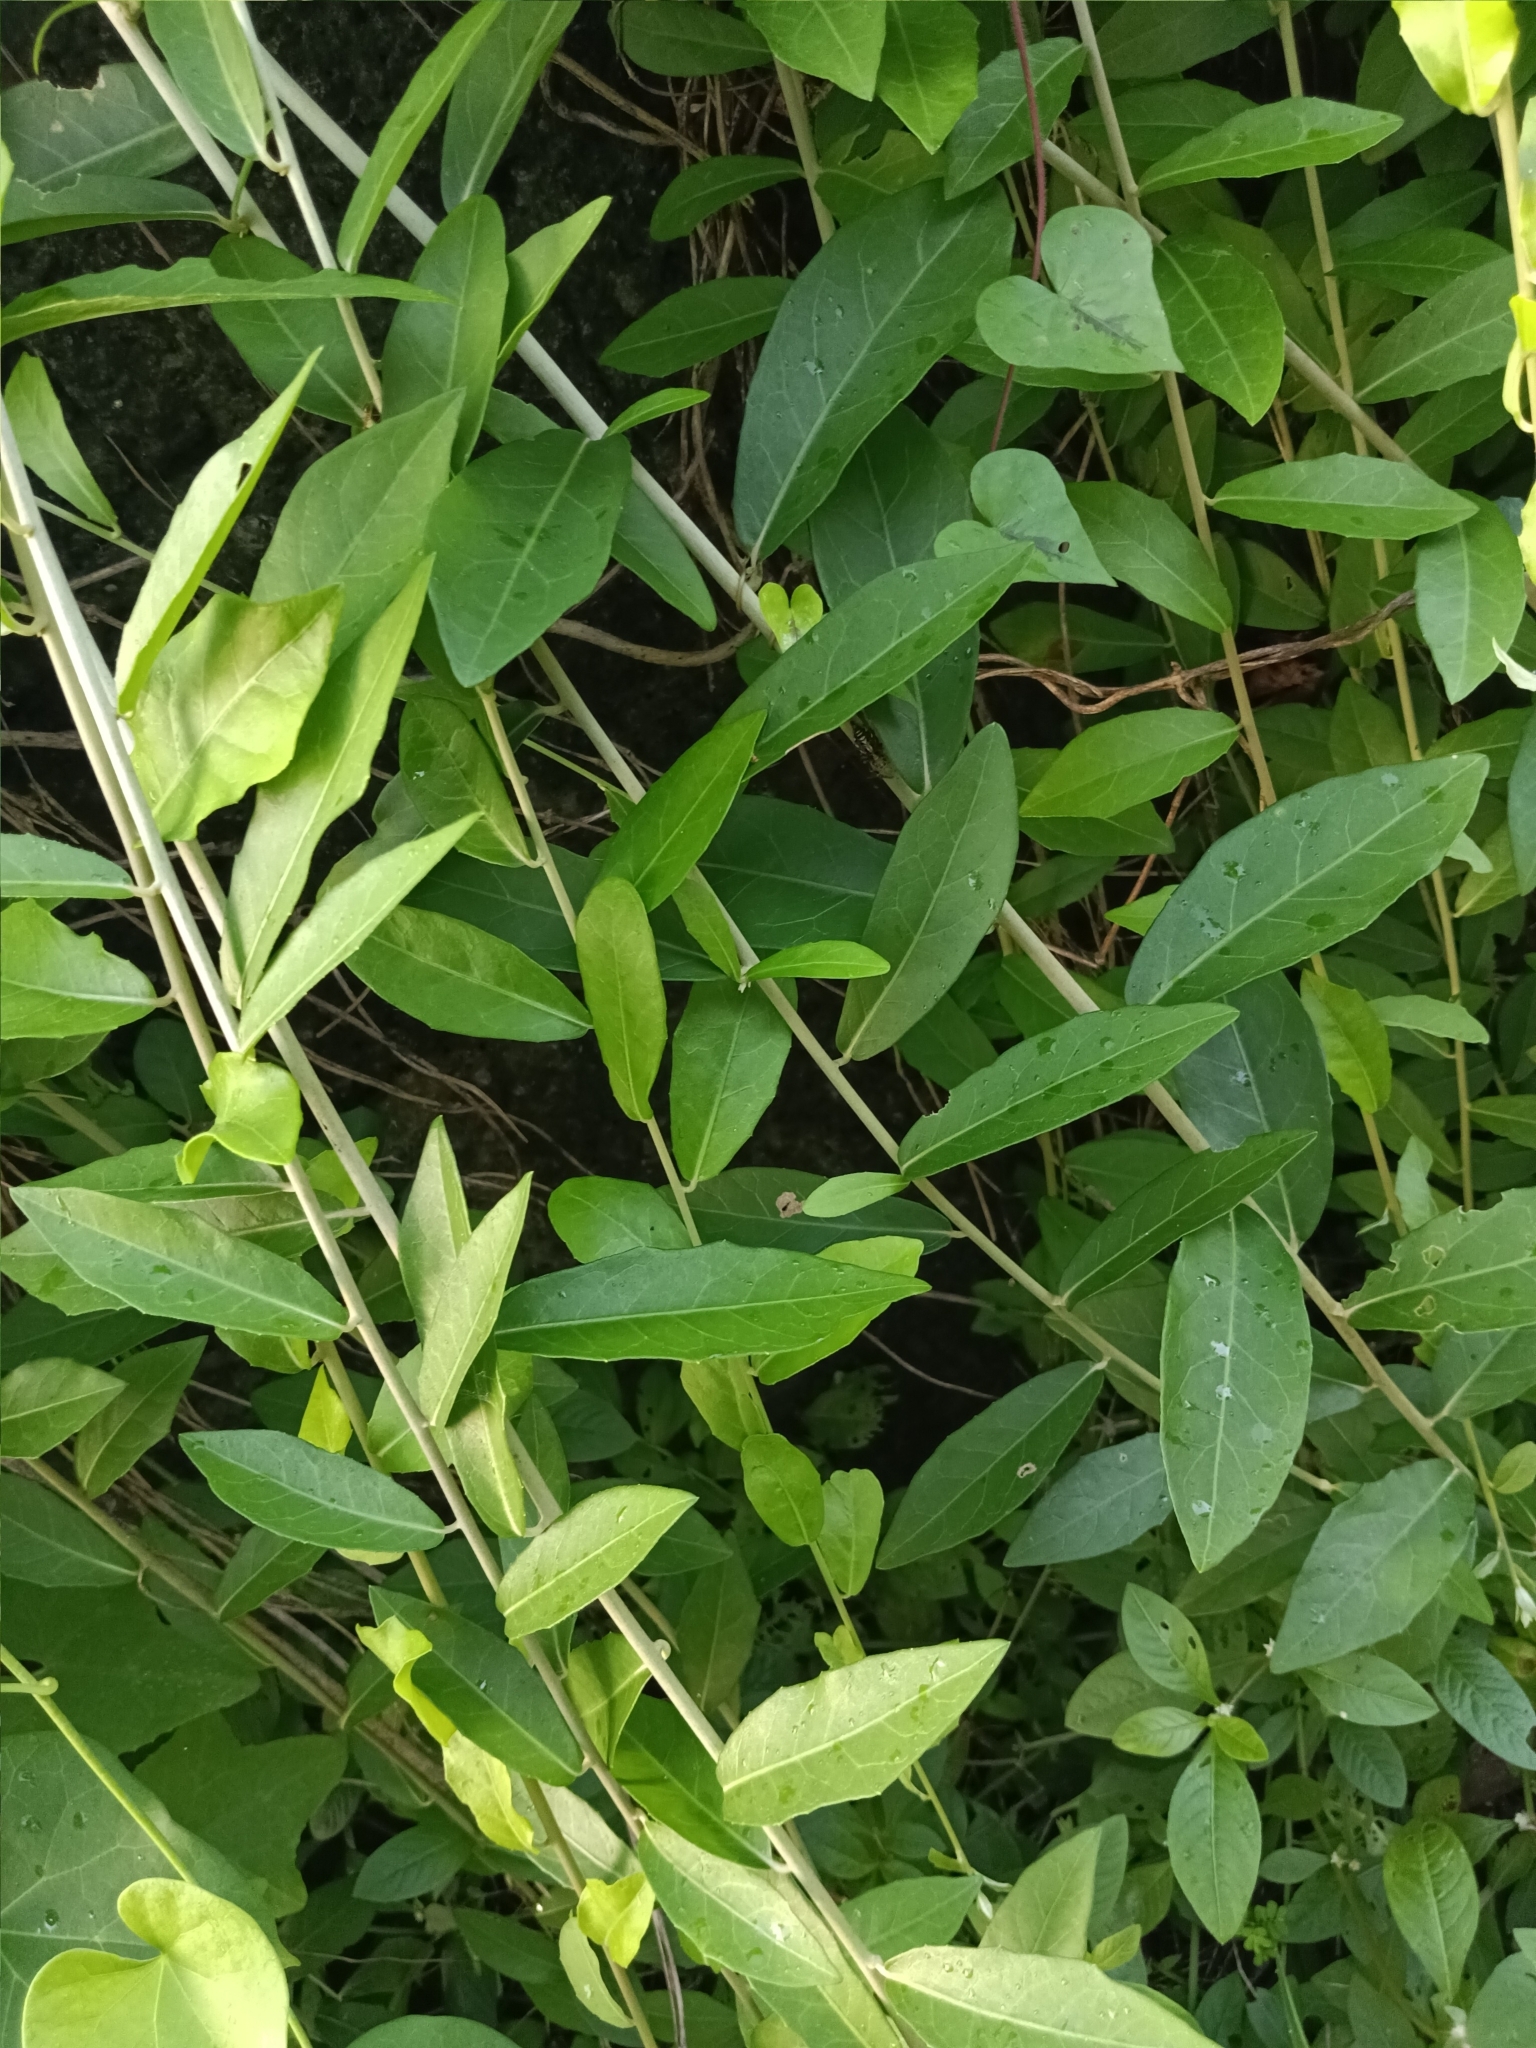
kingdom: Plantae
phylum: Tracheophyta
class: Magnoliopsida
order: Asterales
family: Asteraceae
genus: Tarlmounia
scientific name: Tarlmounia elliptica
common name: Kheua sa lot
